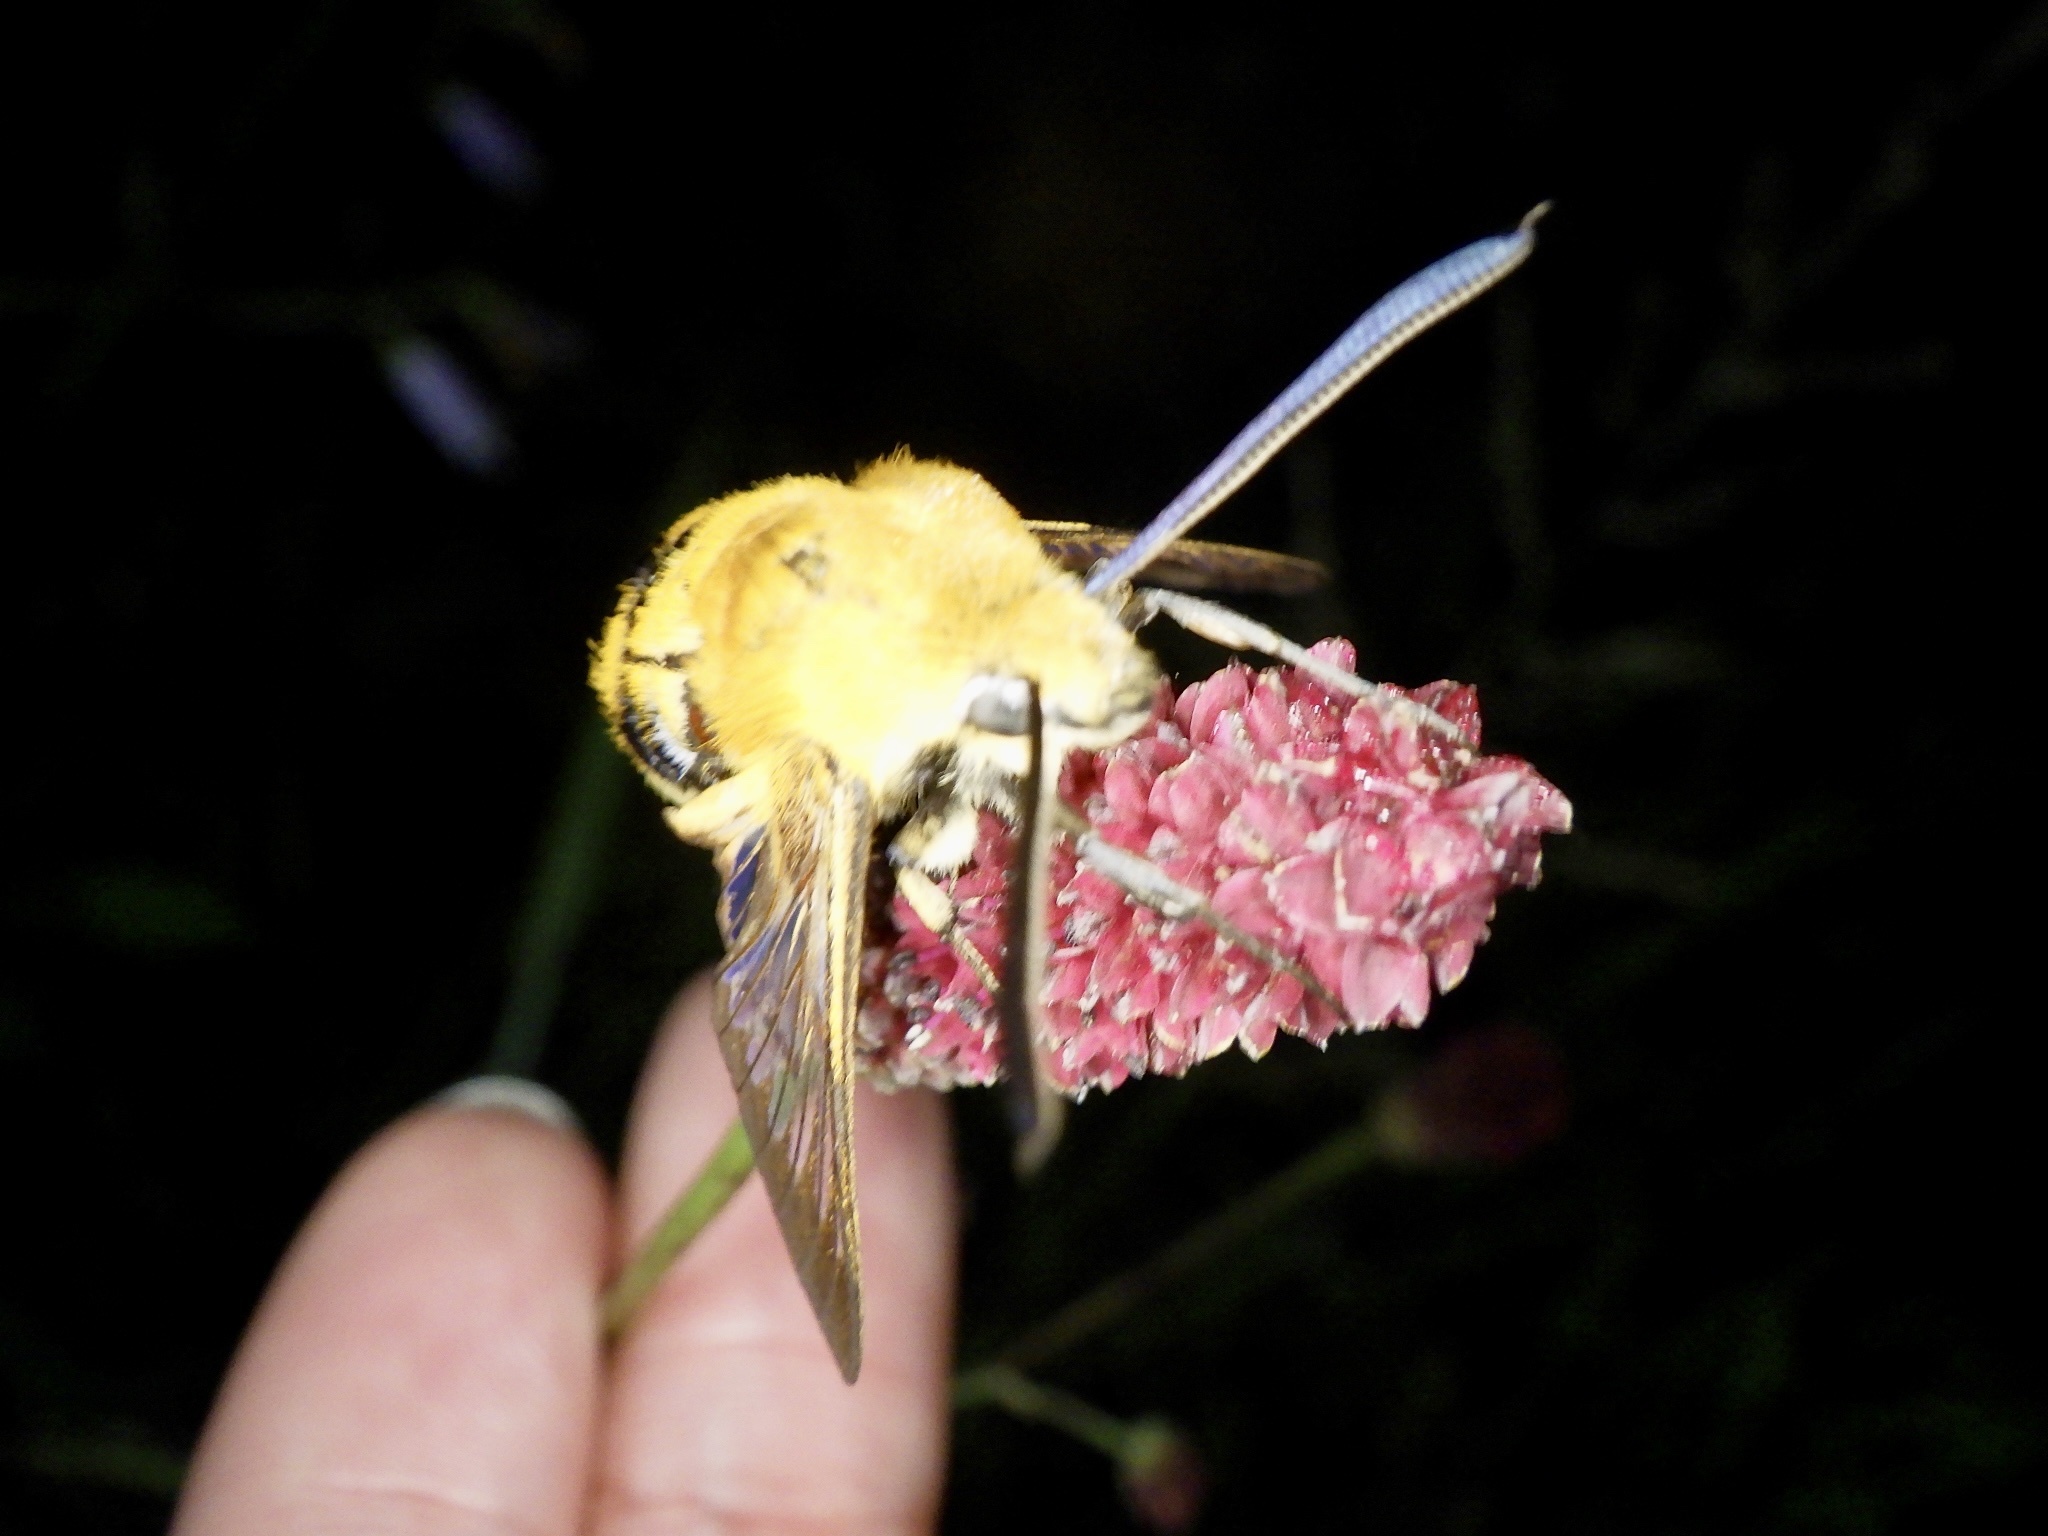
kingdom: Animalia
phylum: Arthropoda
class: Insecta
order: Lepidoptera
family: Sphingidae
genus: Hemaris
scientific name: Hemaris radians
